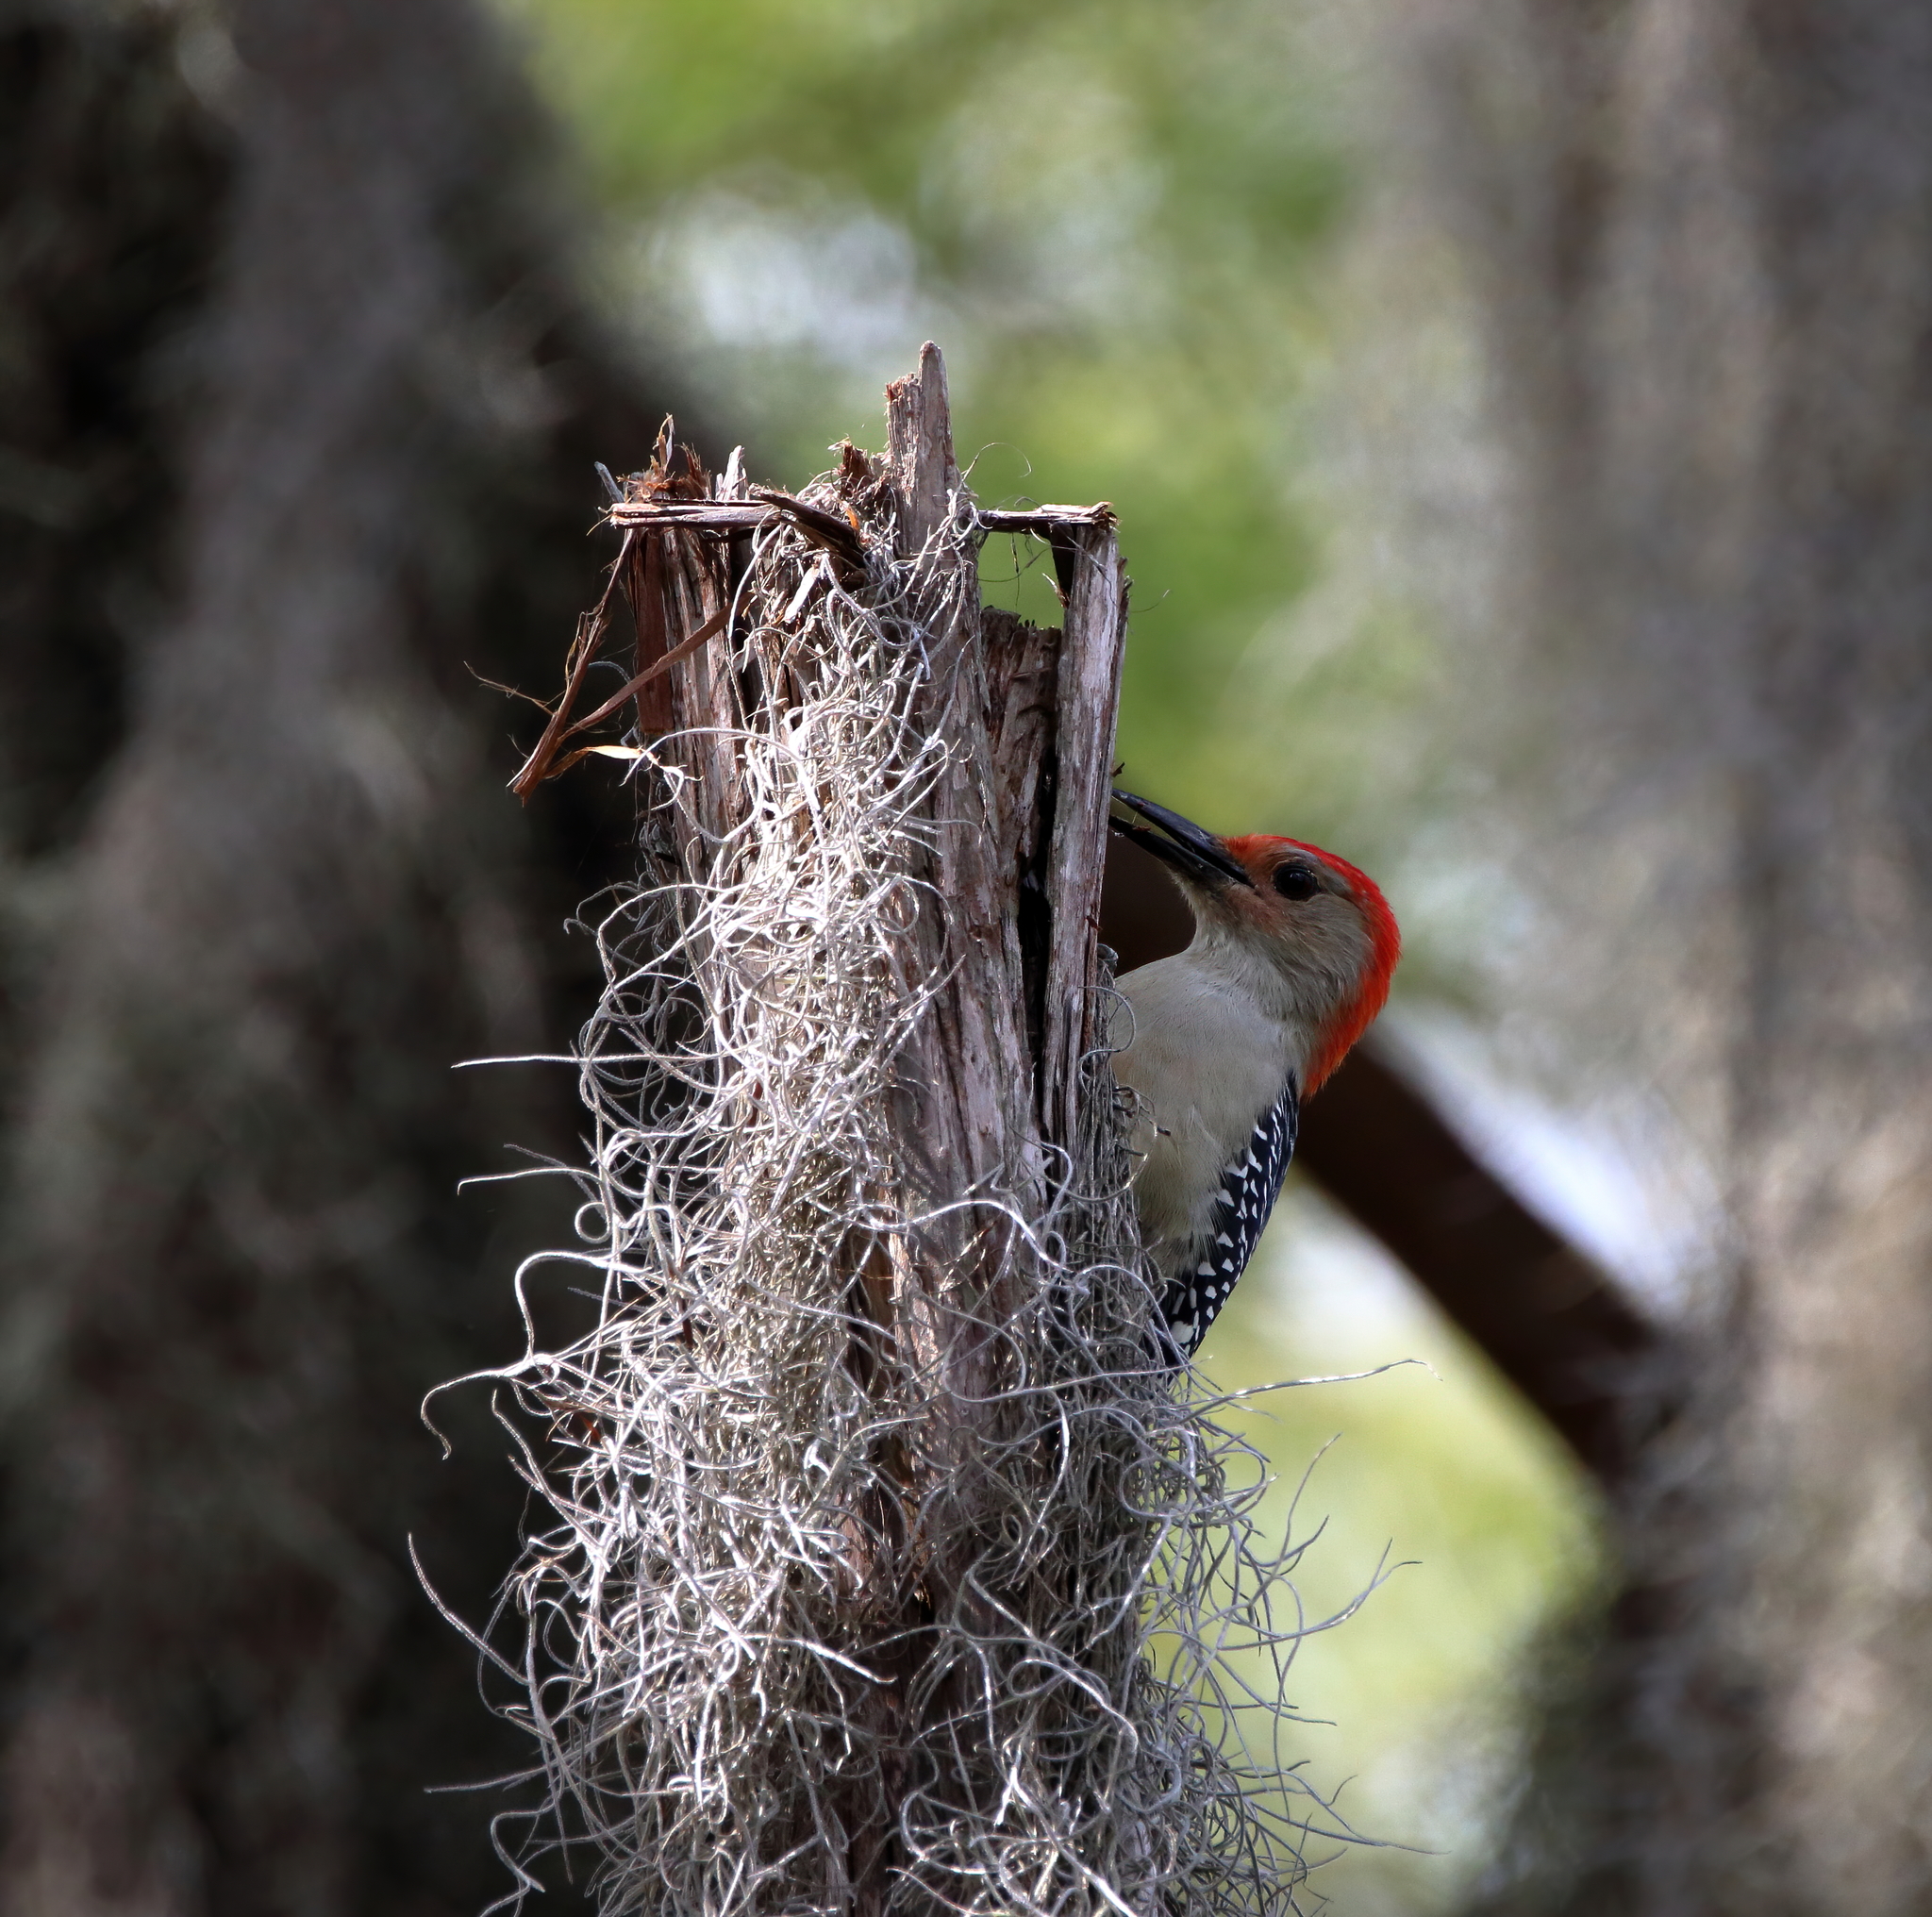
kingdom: Animalia
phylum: Chordata
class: Aves
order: Piciformes
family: Picidae
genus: Melanerpes
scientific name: Melanerpes carolinus
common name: Red-bellied woodpecker
